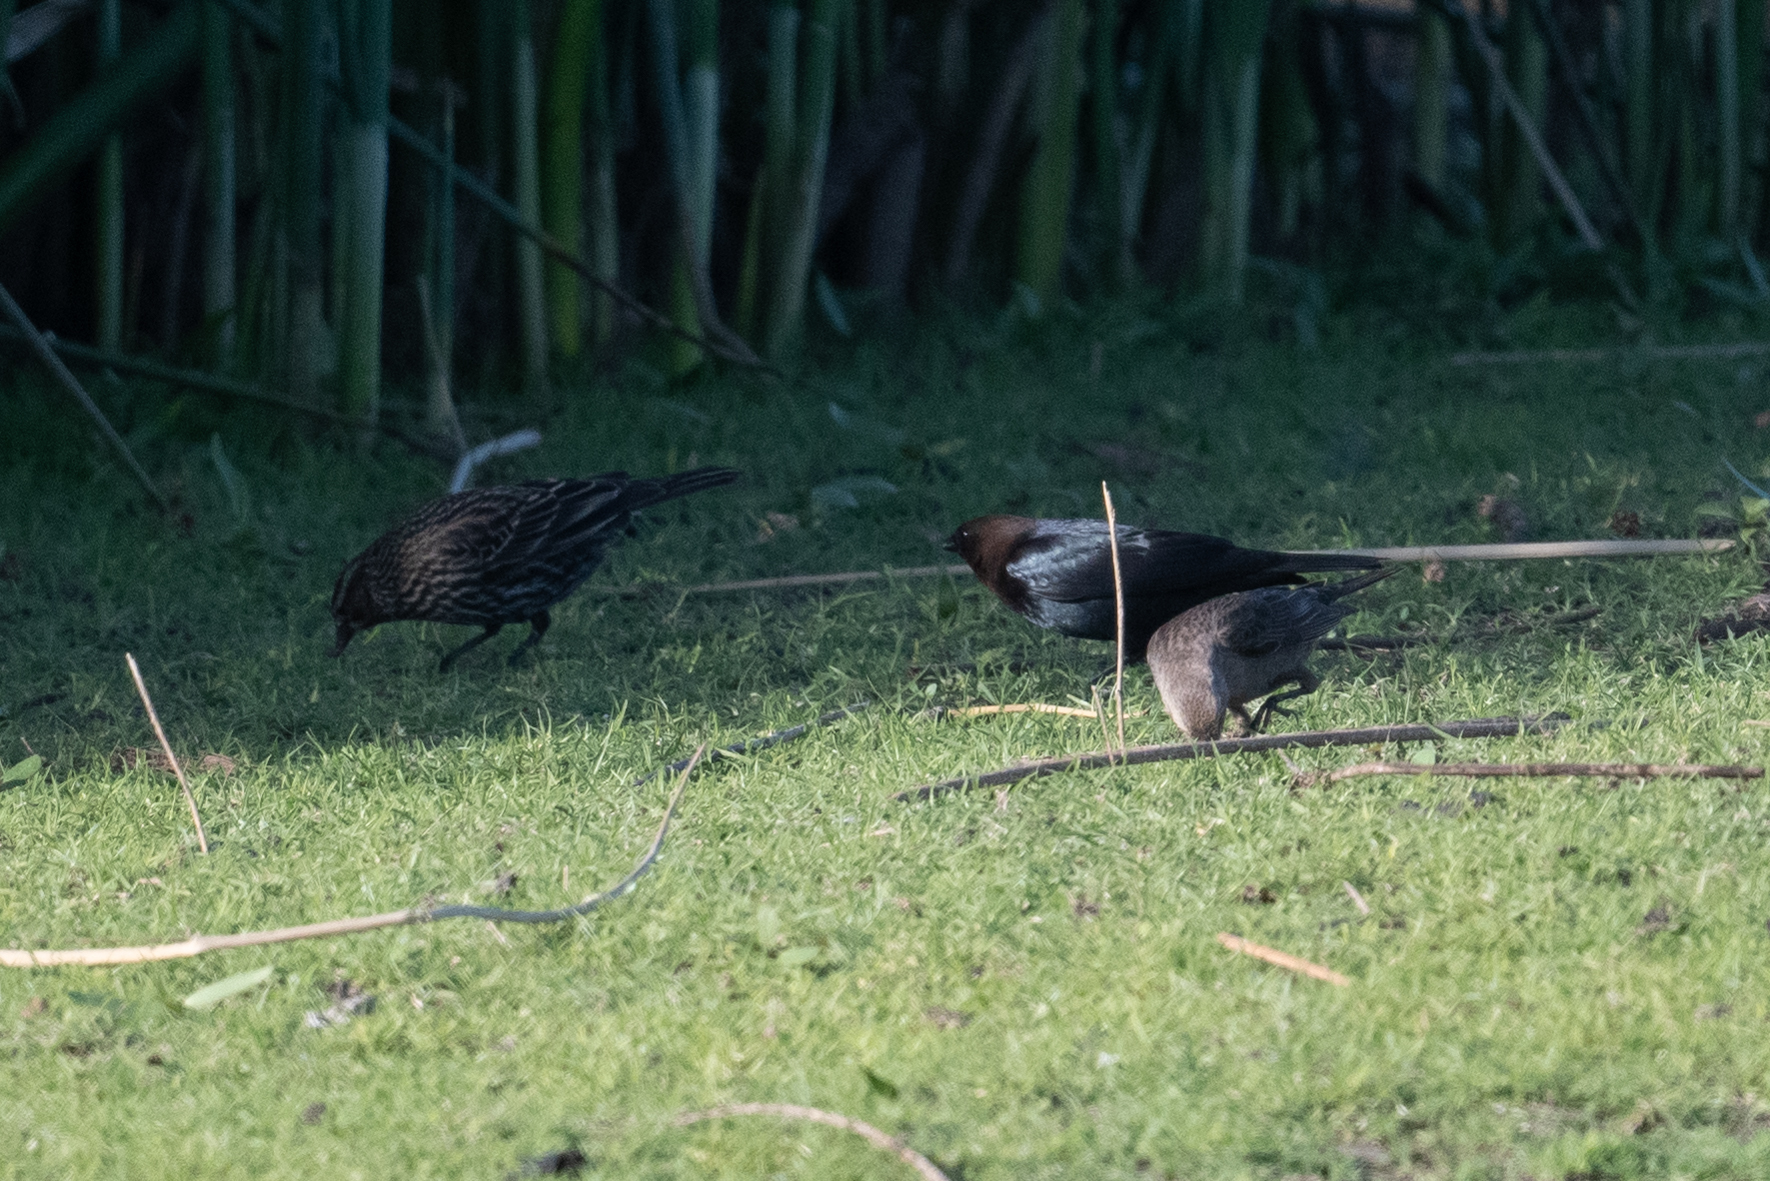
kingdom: Animalia
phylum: Chordata
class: Aves
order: Passeriformes
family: Icteridae
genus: Molothrus
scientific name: Molothrus ater
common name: Brown-headed cowbird
